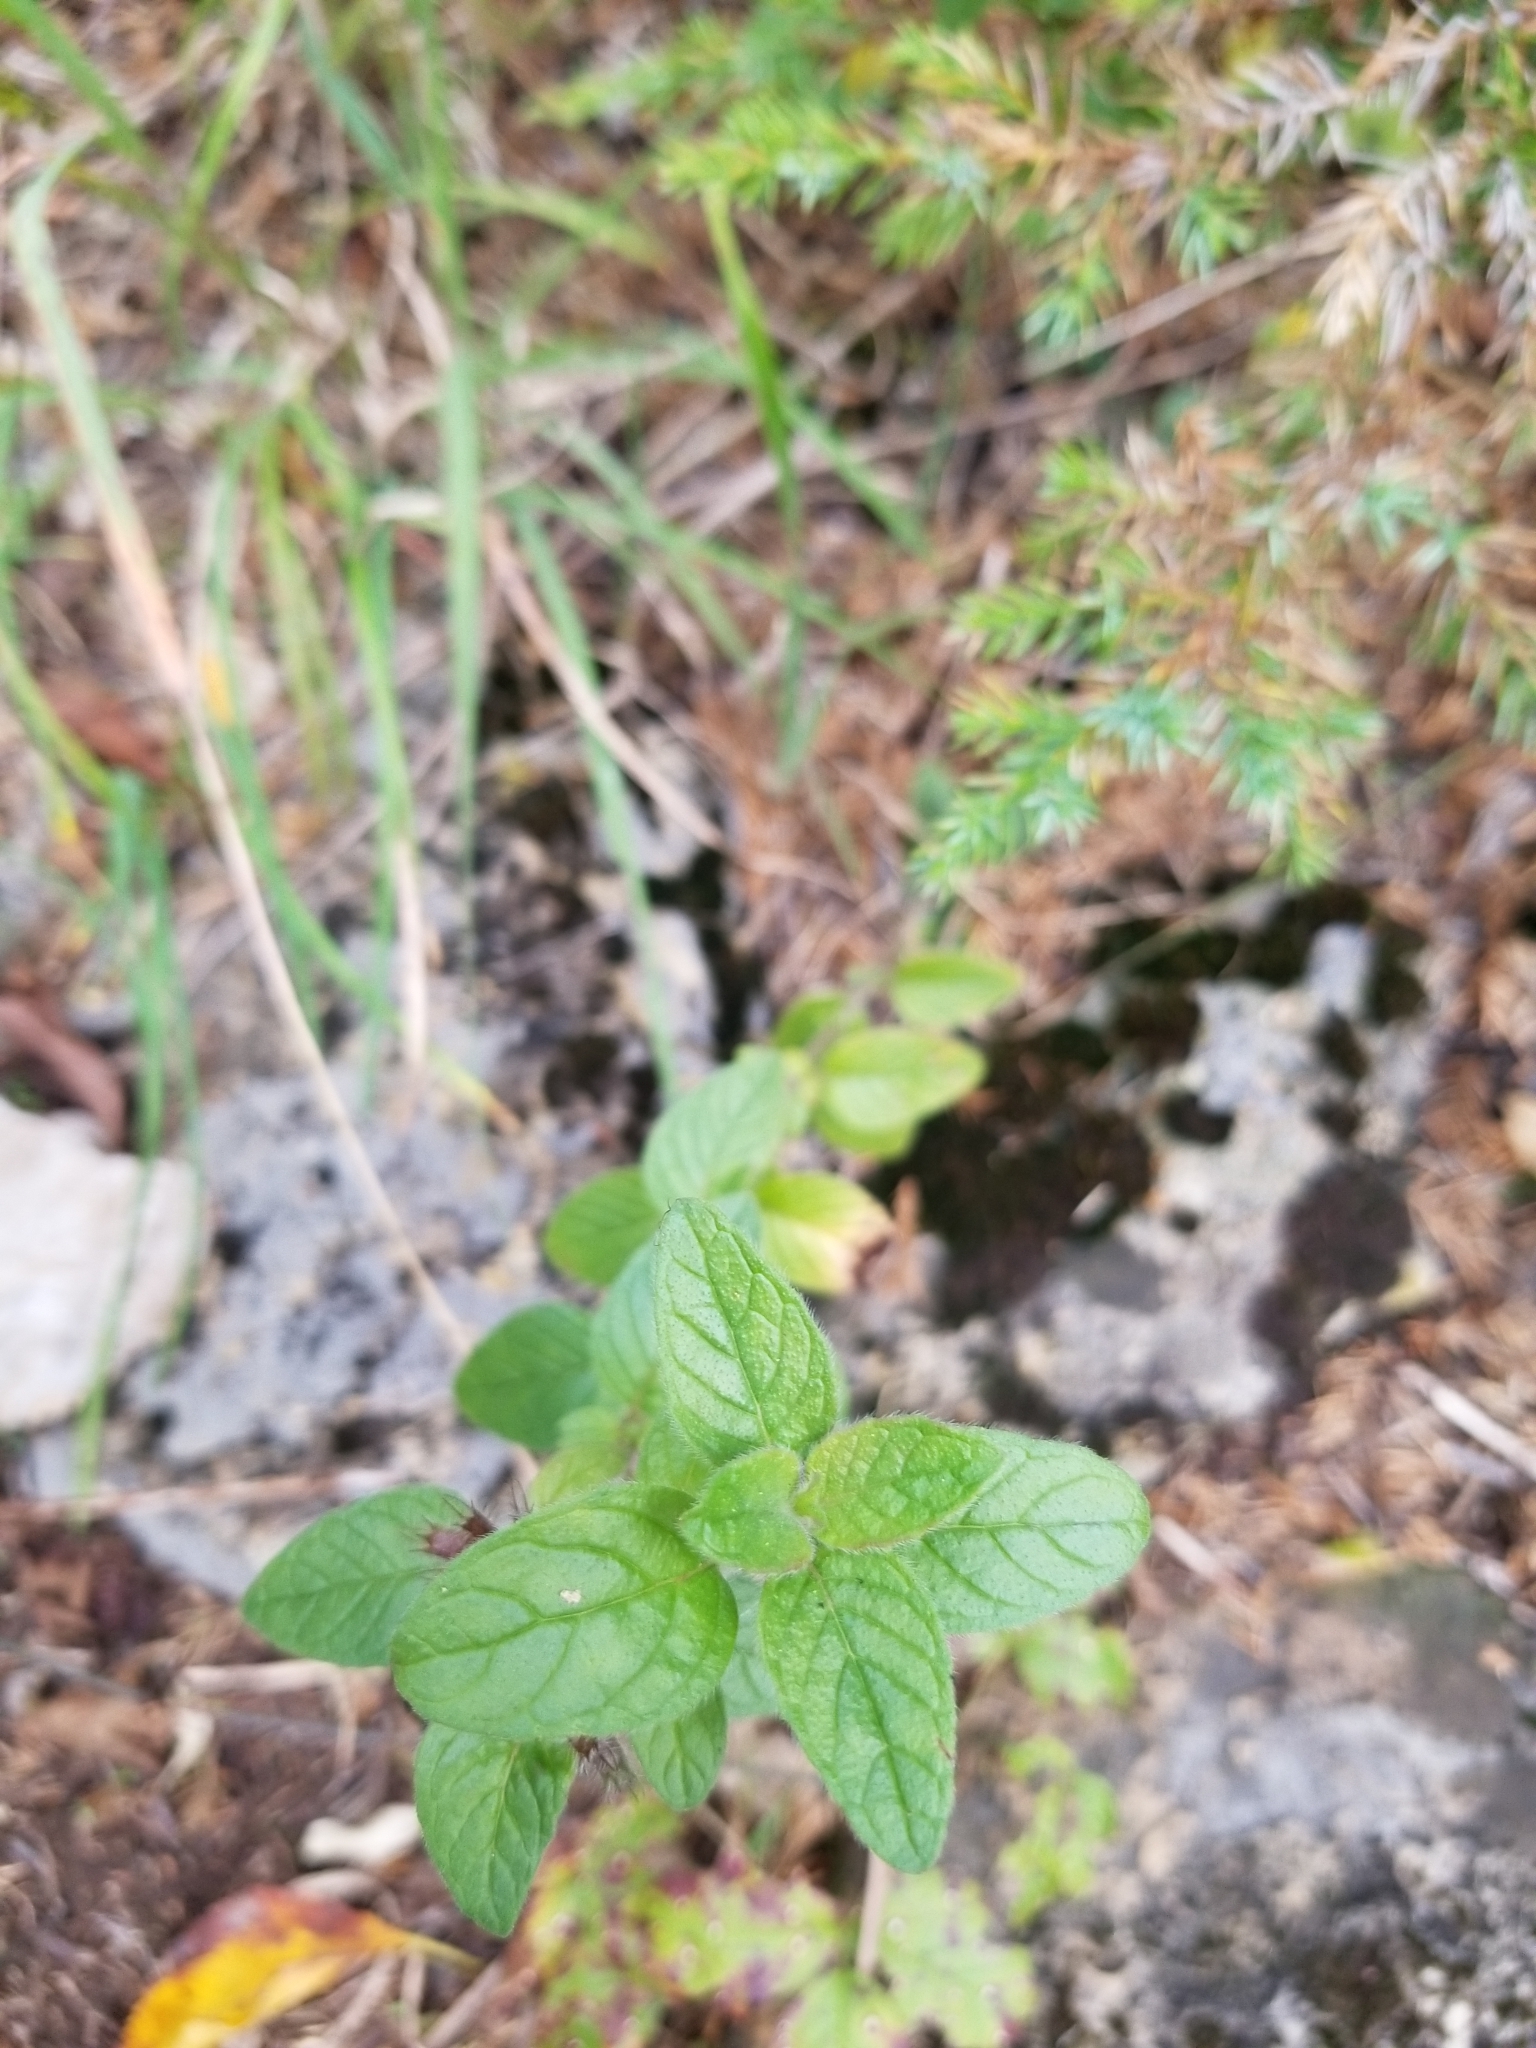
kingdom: Plantae
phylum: Tracheophyta
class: Magnoliopsida
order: Lamiales
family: Lamiaceae
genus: Clinopodium
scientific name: Clinopodium vulgare
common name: Wild basil
